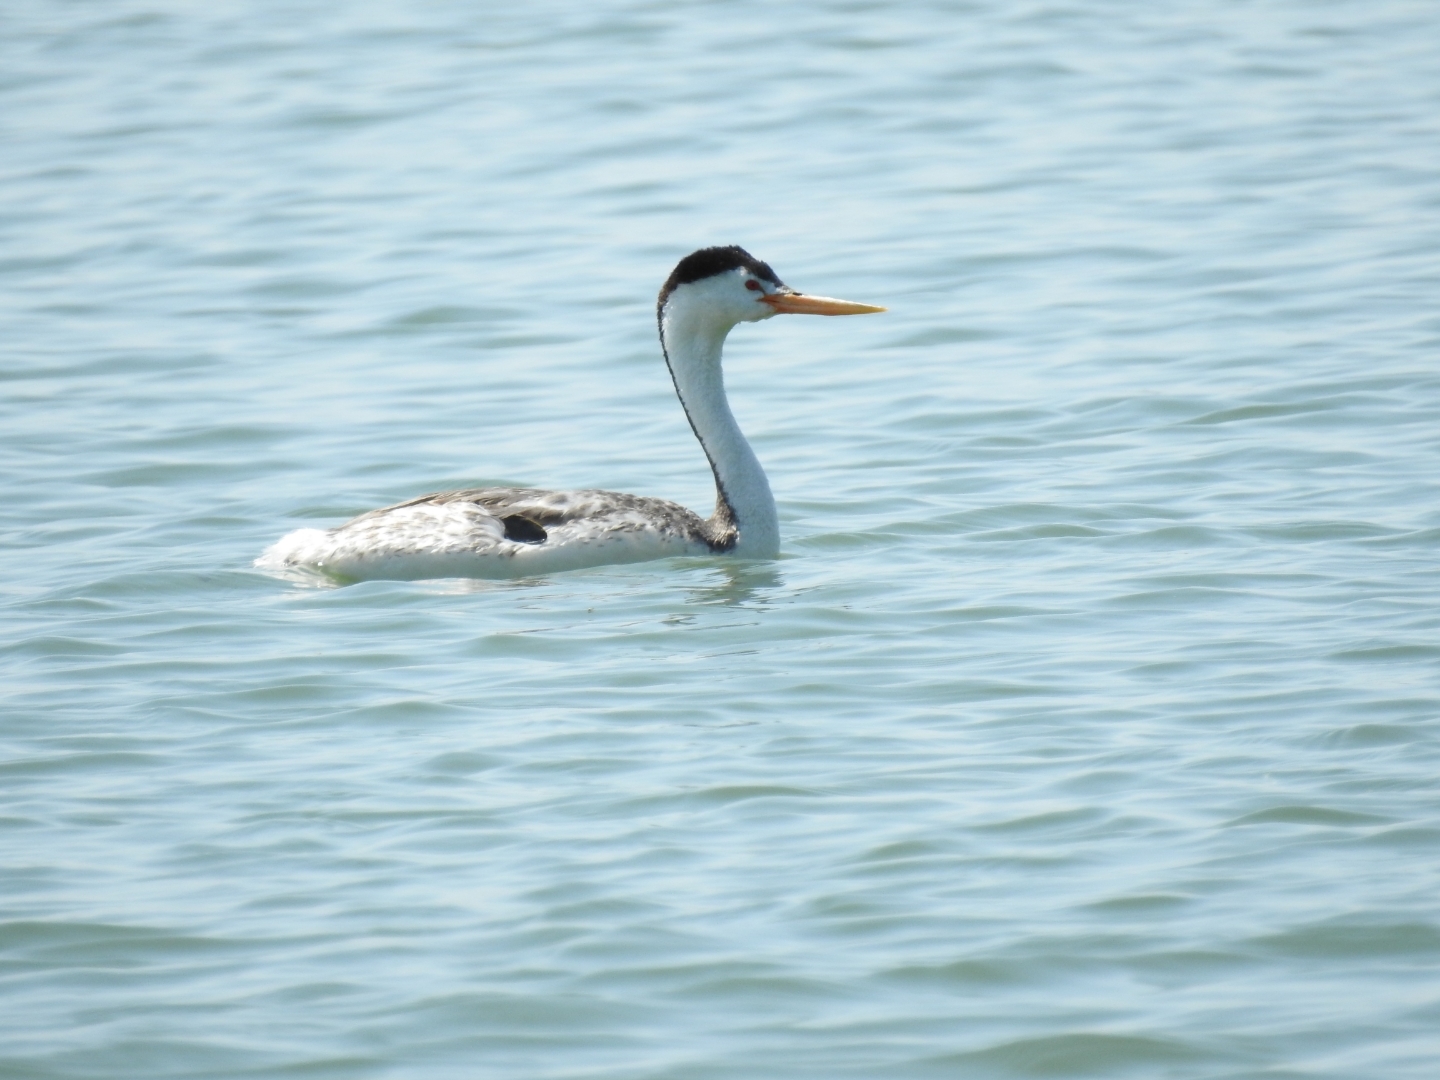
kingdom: Animalia
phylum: Chordata
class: Aves
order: Podicipediformes
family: Podicipedidae
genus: Aechmophorus
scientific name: Aechmophorus clarkii
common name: Clark's grebe
